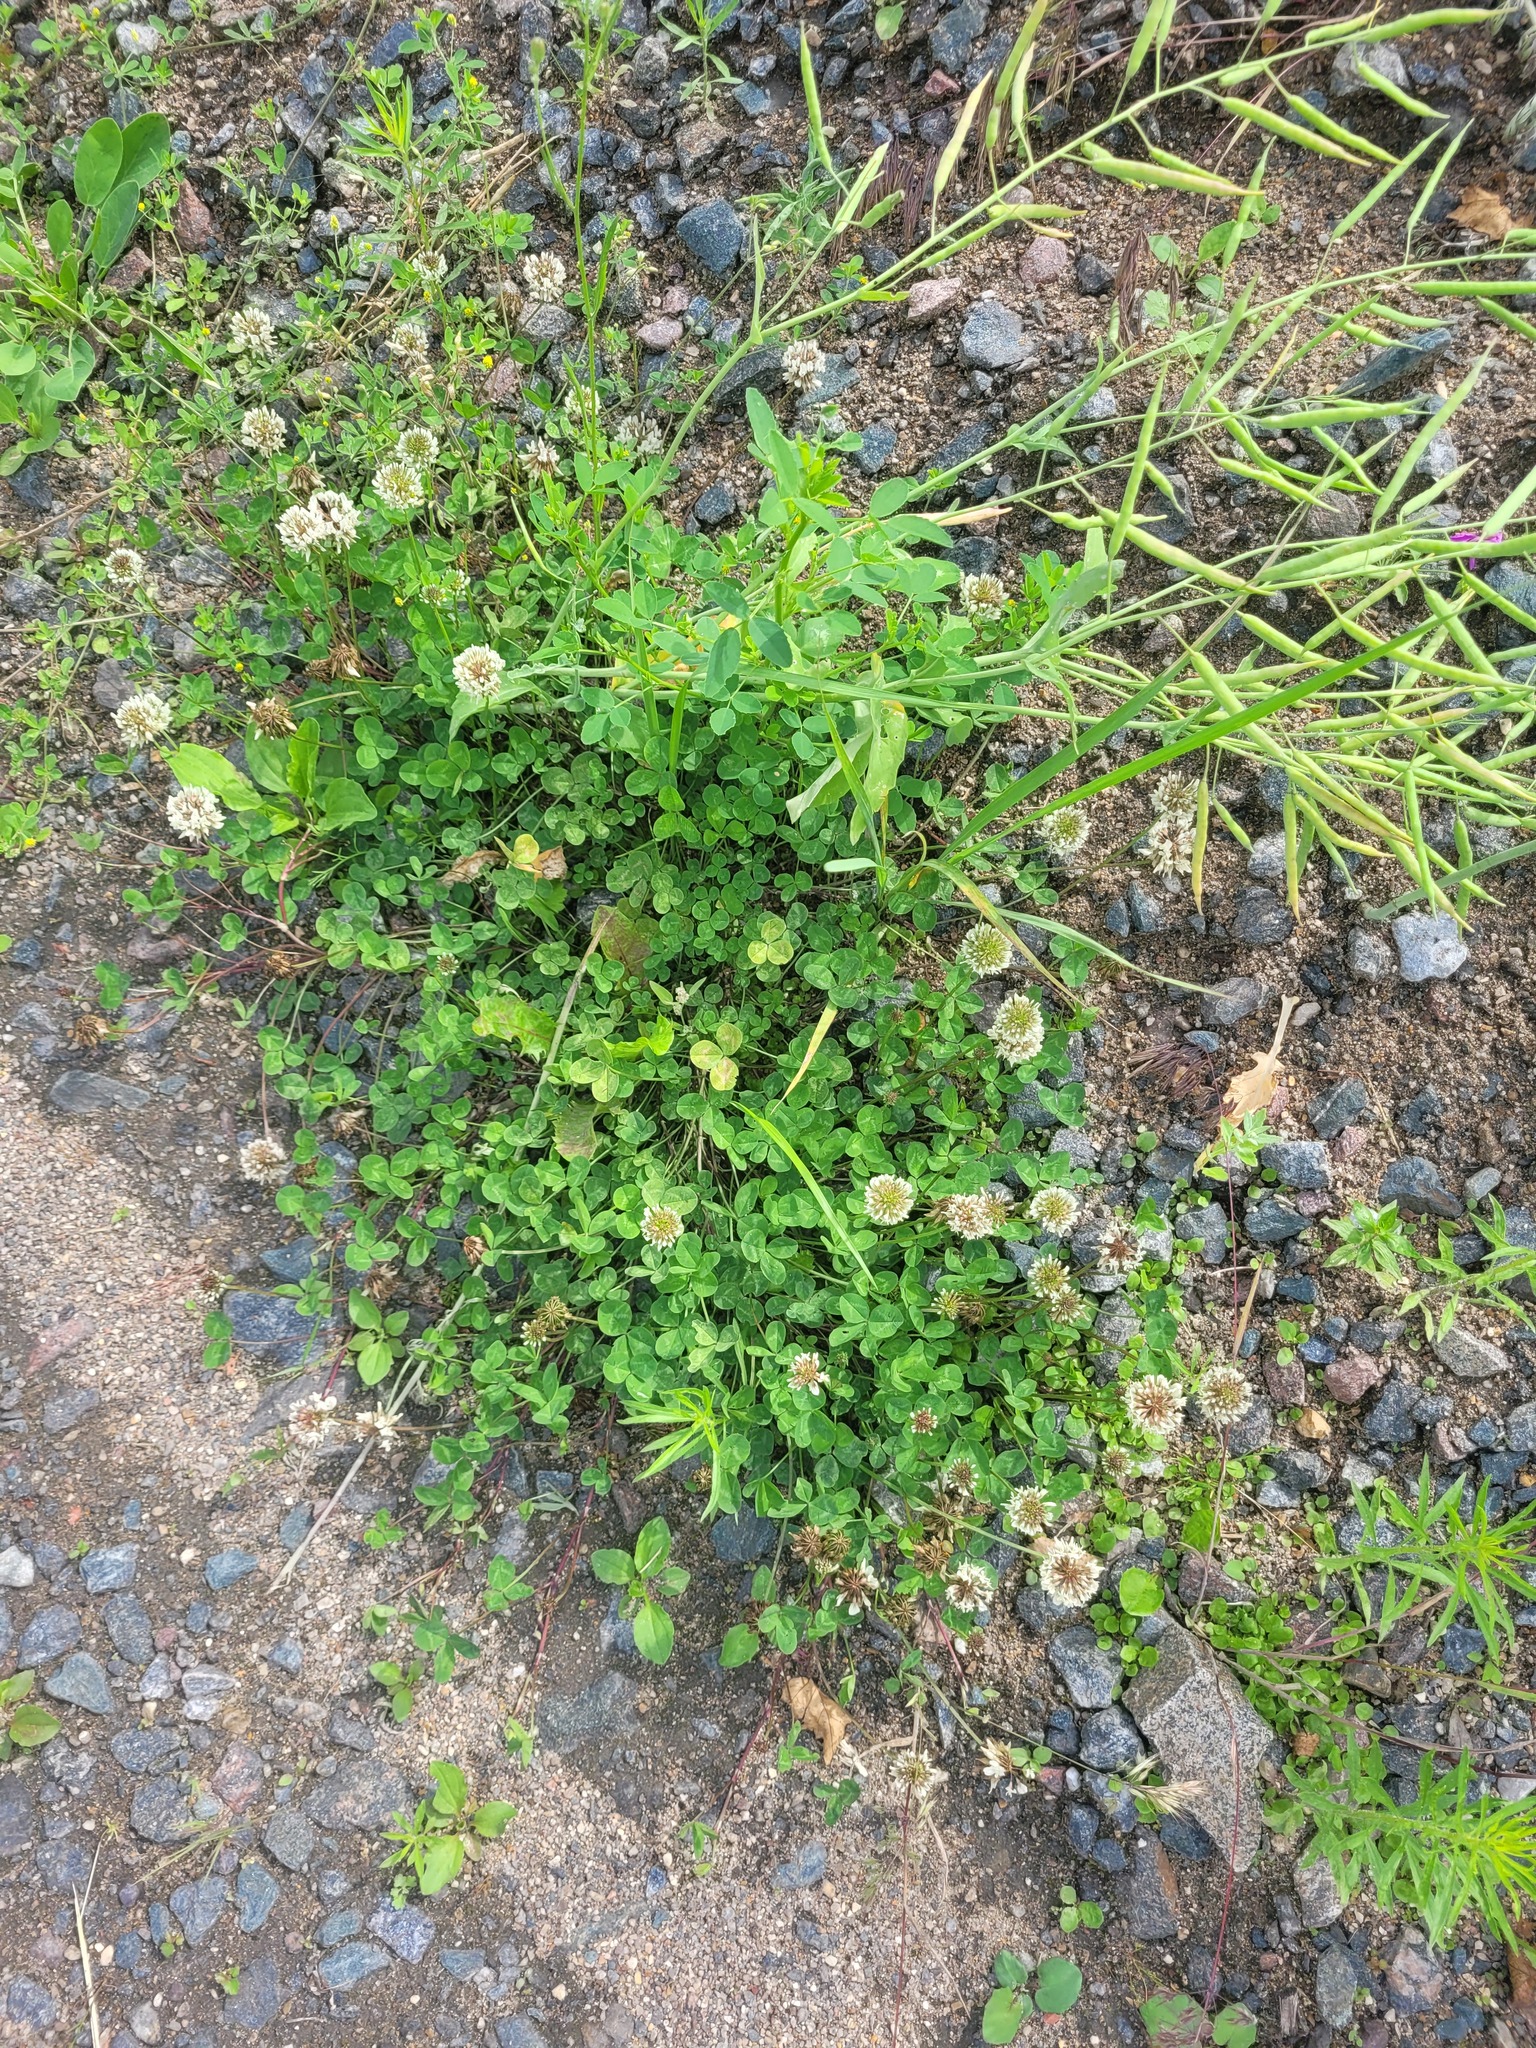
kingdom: Plantae
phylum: Tracheophyta
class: Magnoliopsida
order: Fabales
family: Fabaceae
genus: Trifolium
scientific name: Trifolium repens
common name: White clover
